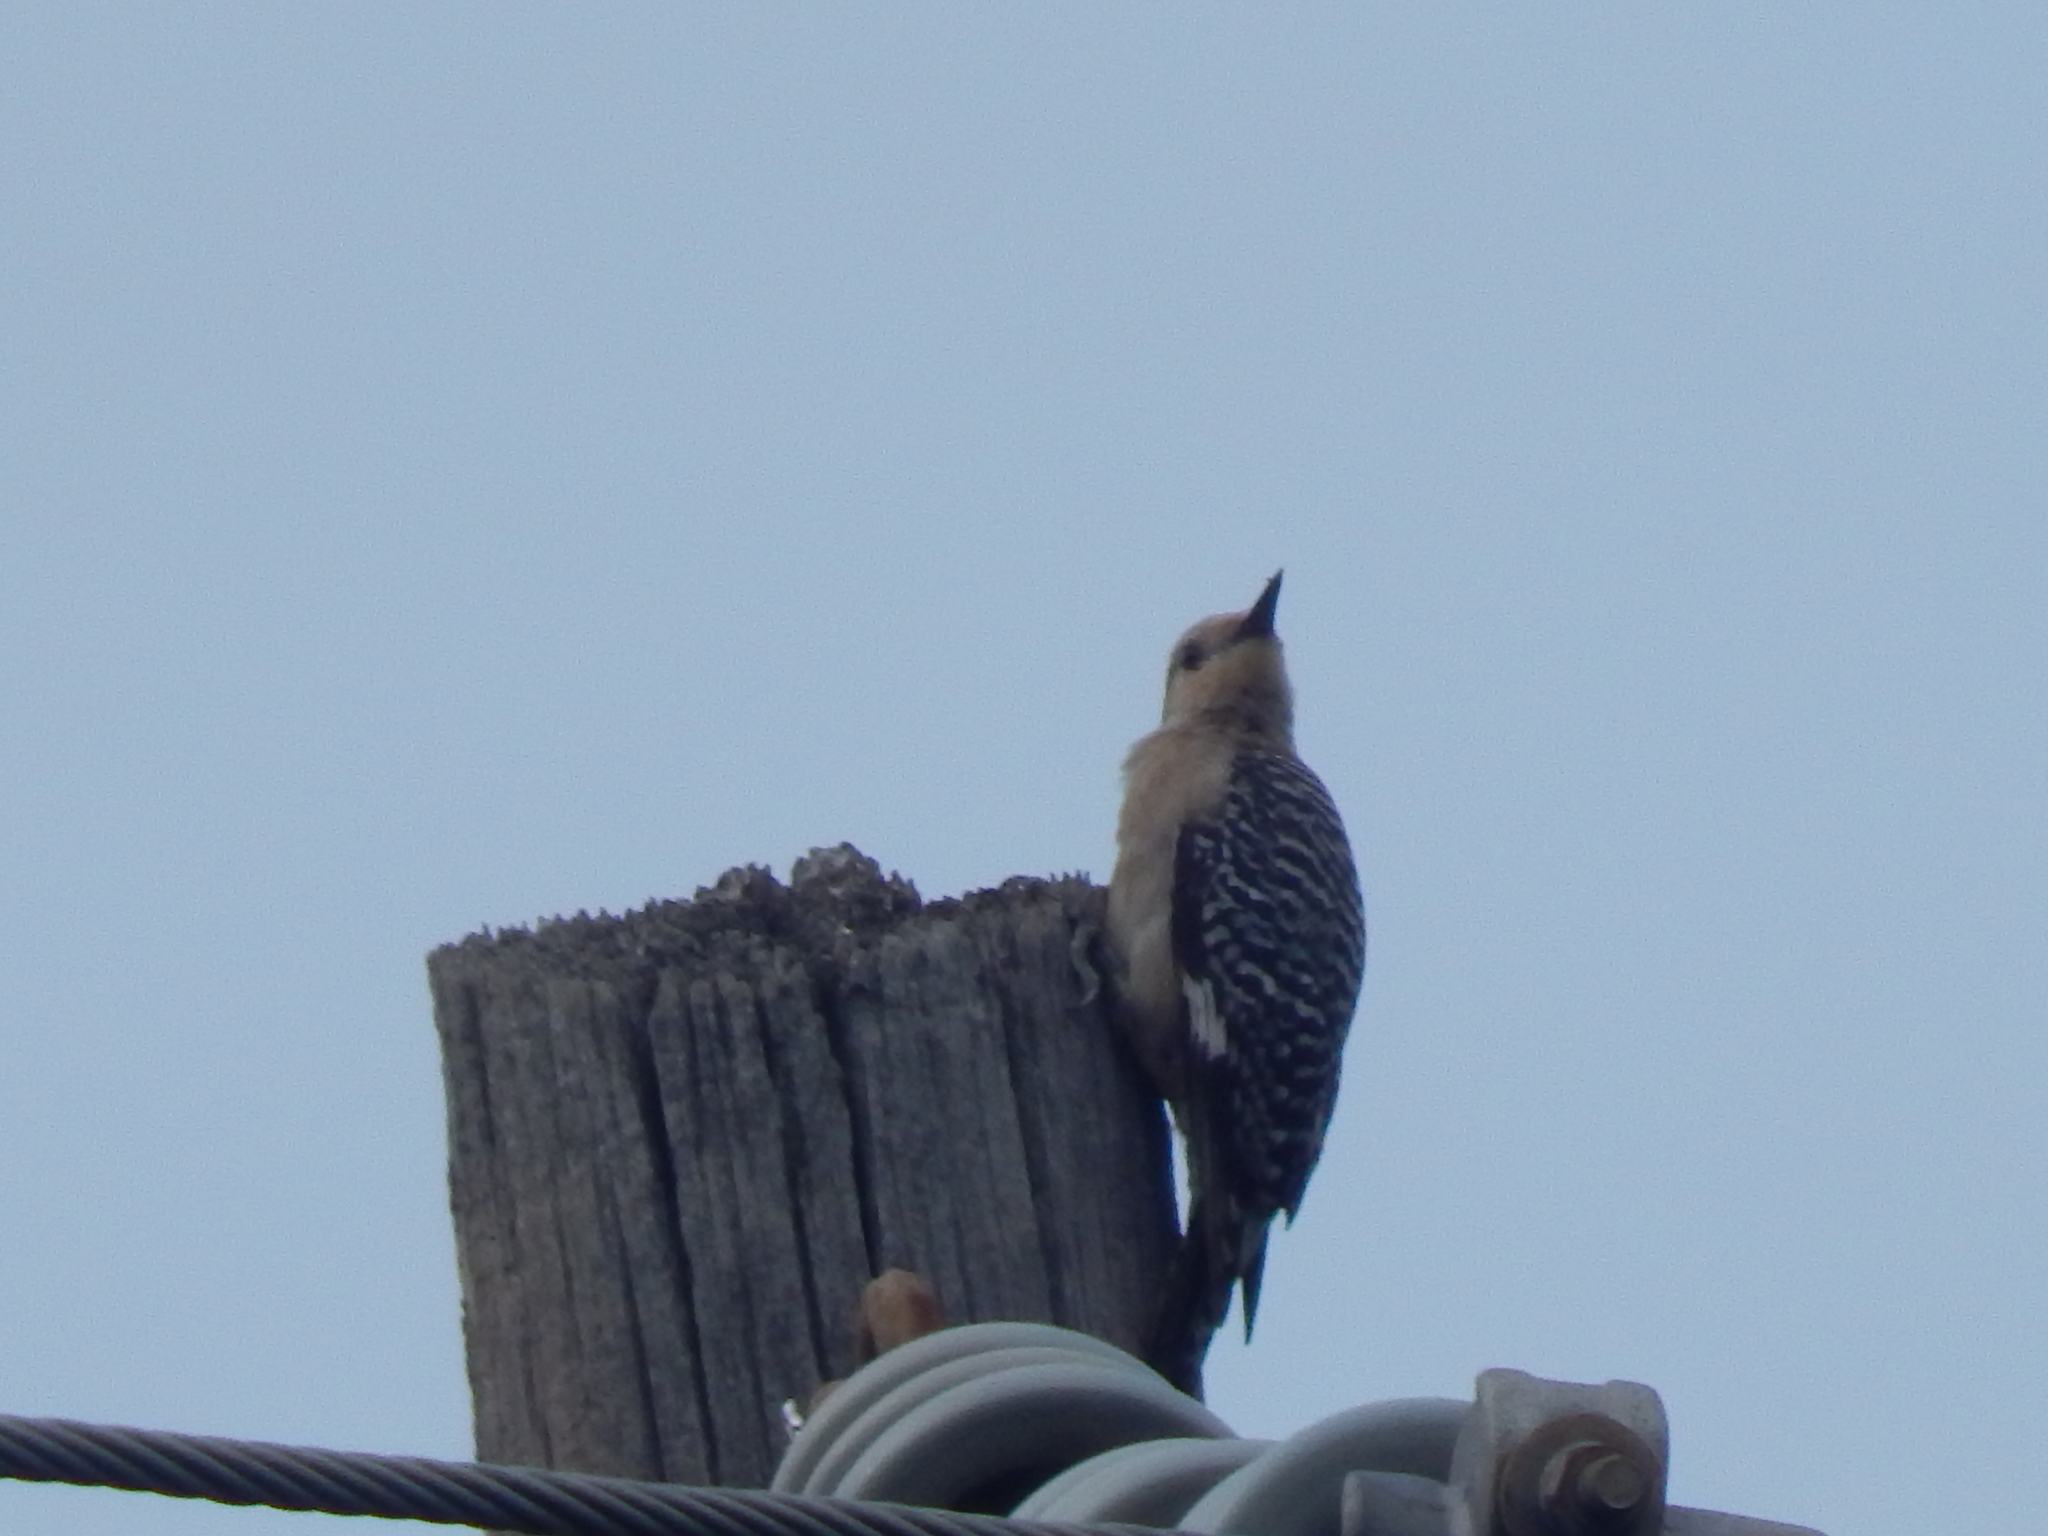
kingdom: Animalia
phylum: Chordata
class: Aves
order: Piciformes
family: Picidae
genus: Melanerpes
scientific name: Melanerpes carolinus
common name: Red-bellied woodpecker
